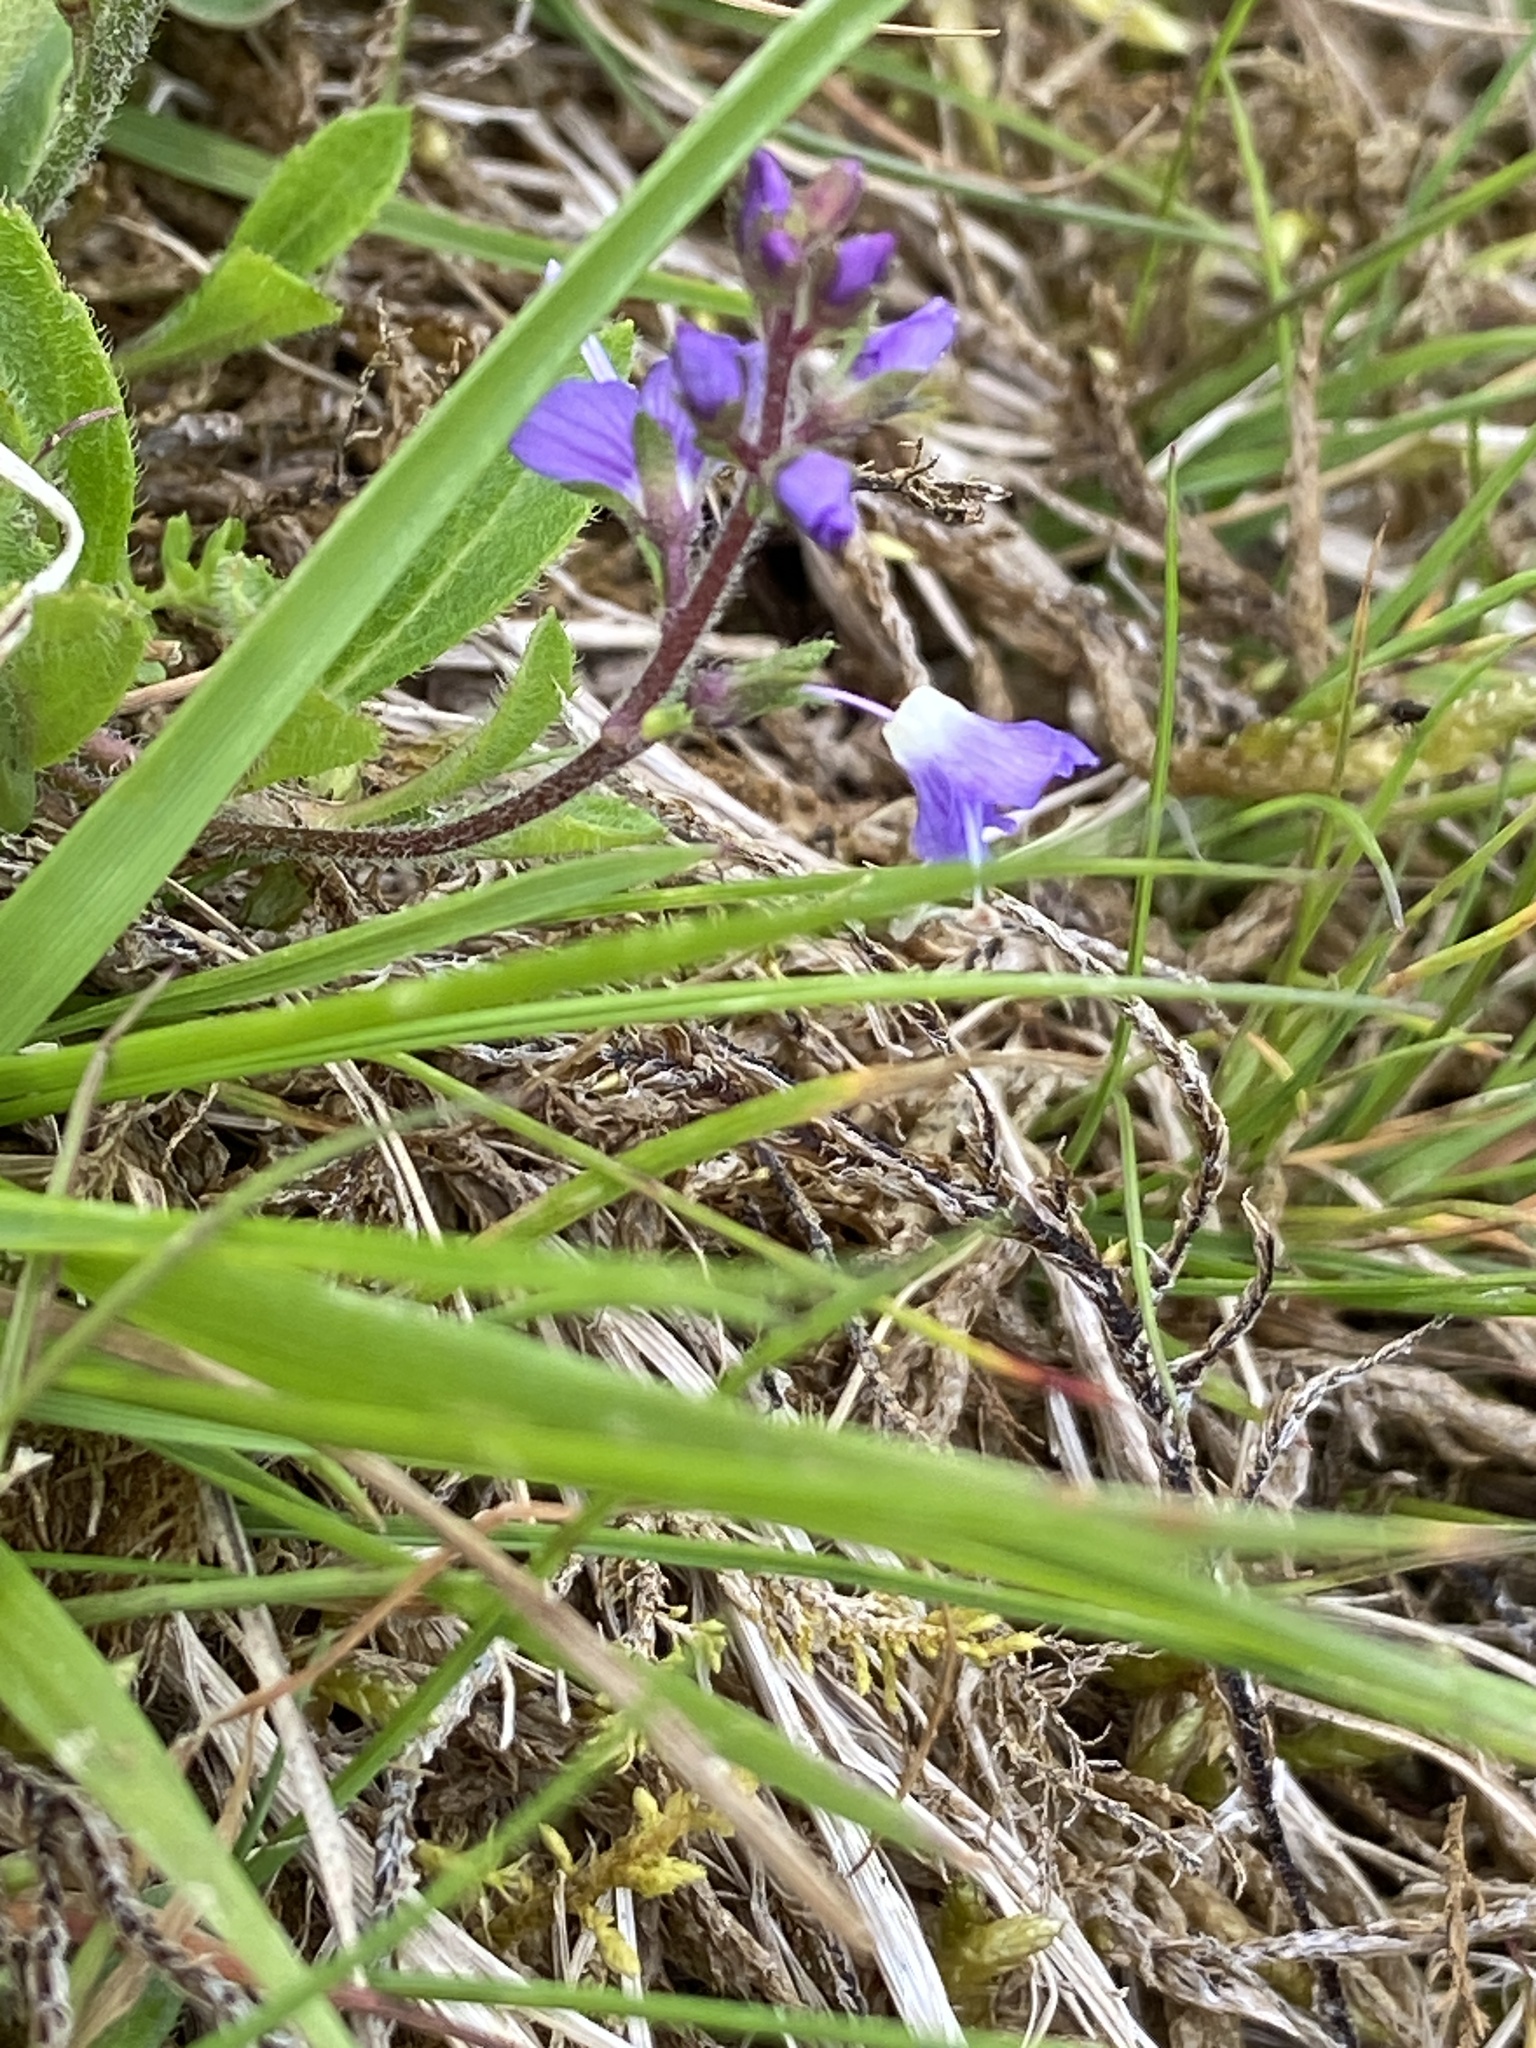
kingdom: Plantae
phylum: Tracheophyta
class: Magnoliopsida
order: Lamiales
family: Plantaginaceae
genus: Veronica
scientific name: Veronica officinalis
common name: Common speedwell
